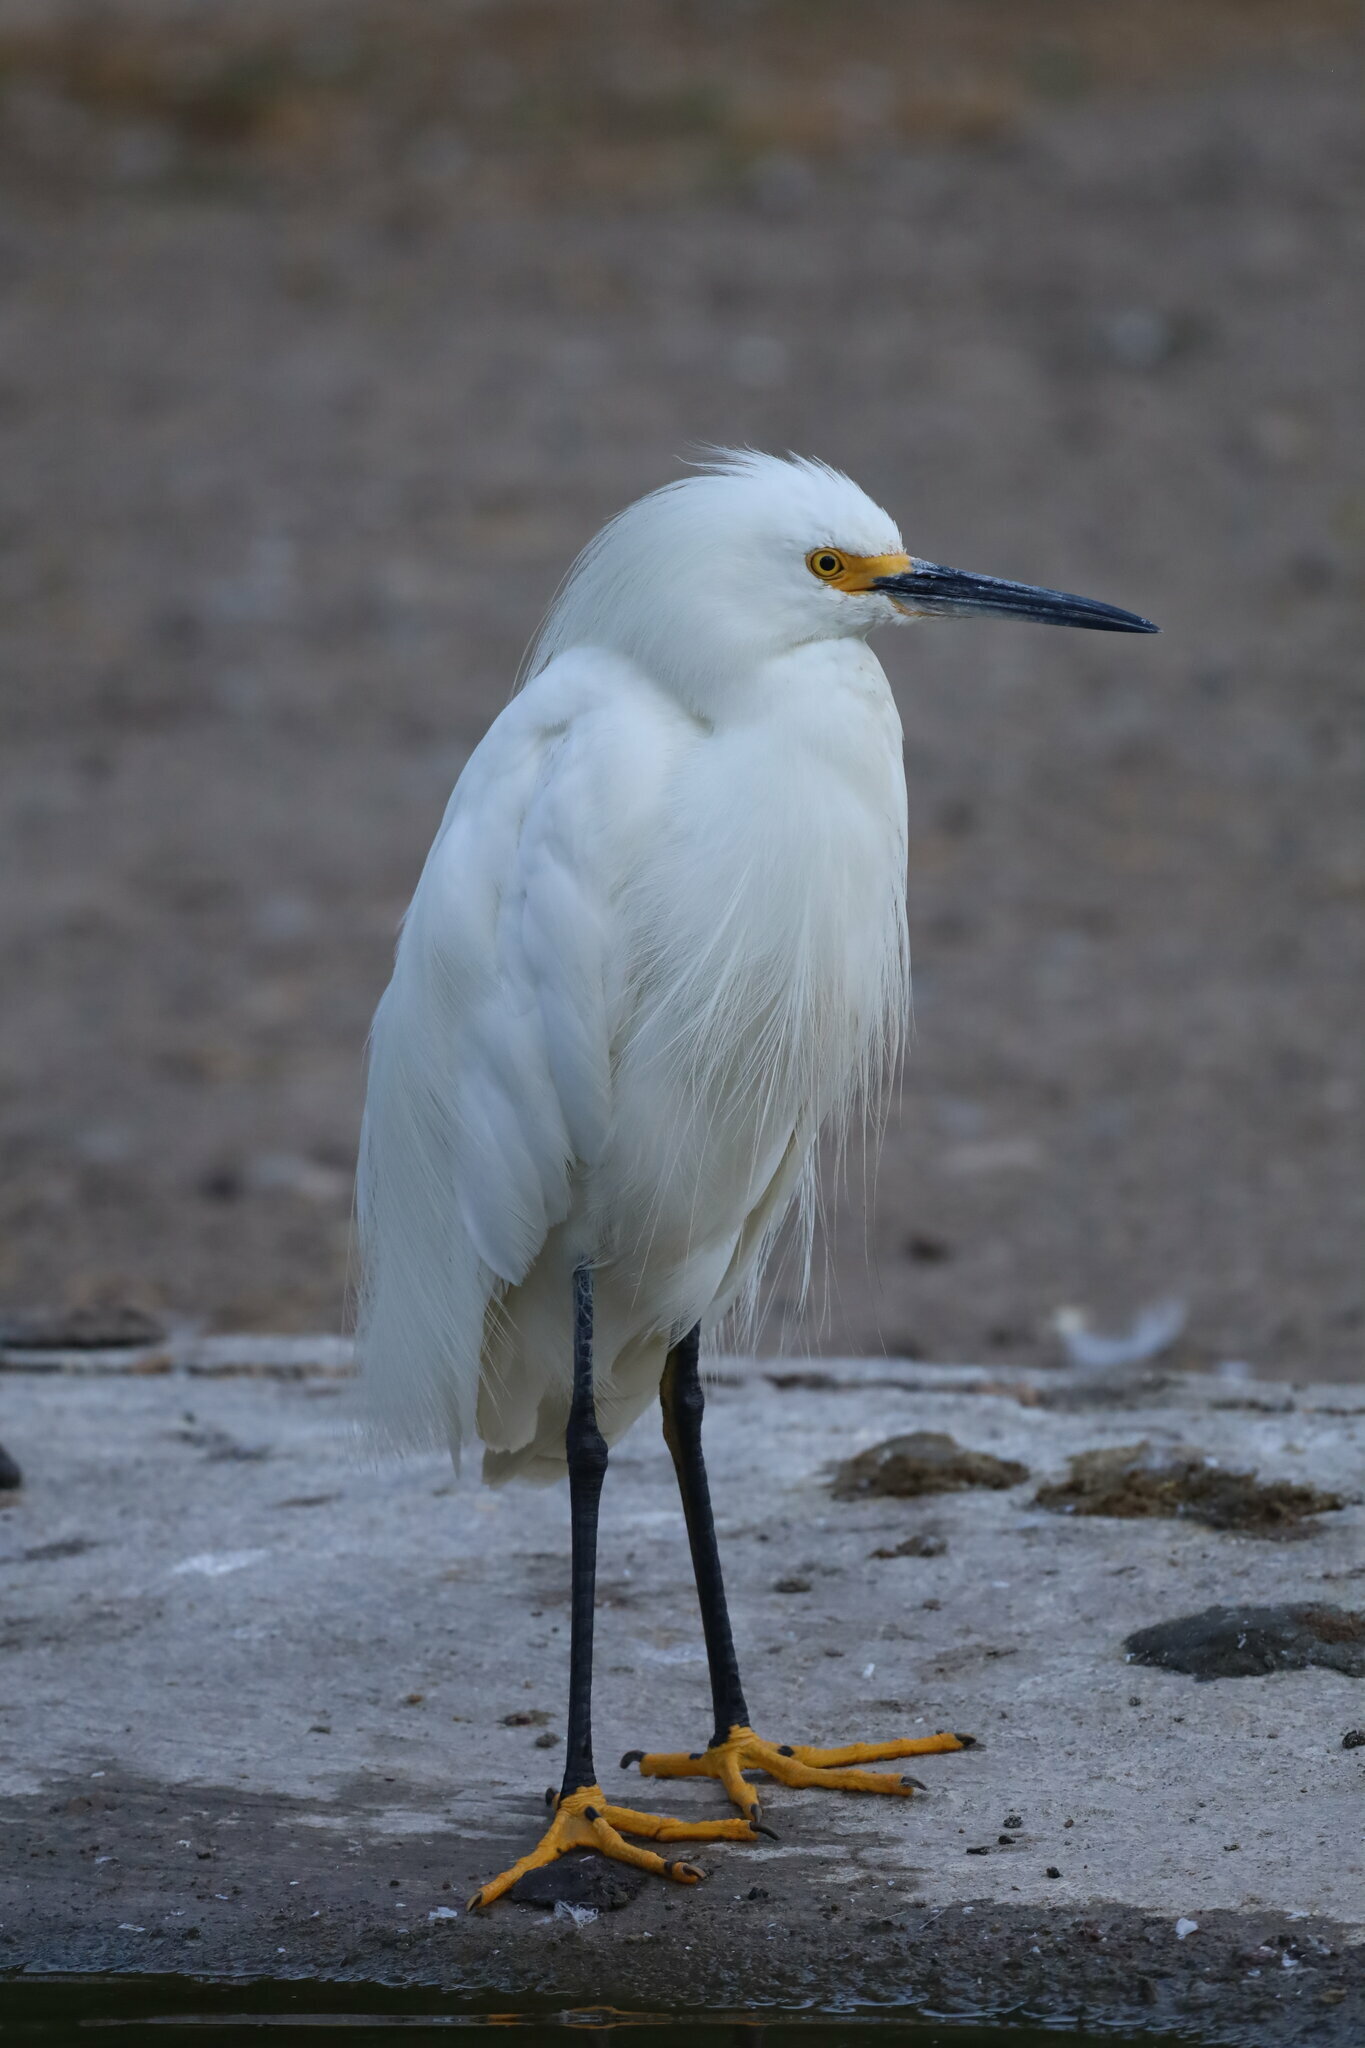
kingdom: Animalia
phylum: Chordata
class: Aves
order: Pelecaniformes
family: Ardeidae
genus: Egretta
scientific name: Egretta thula
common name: Snowy egret
